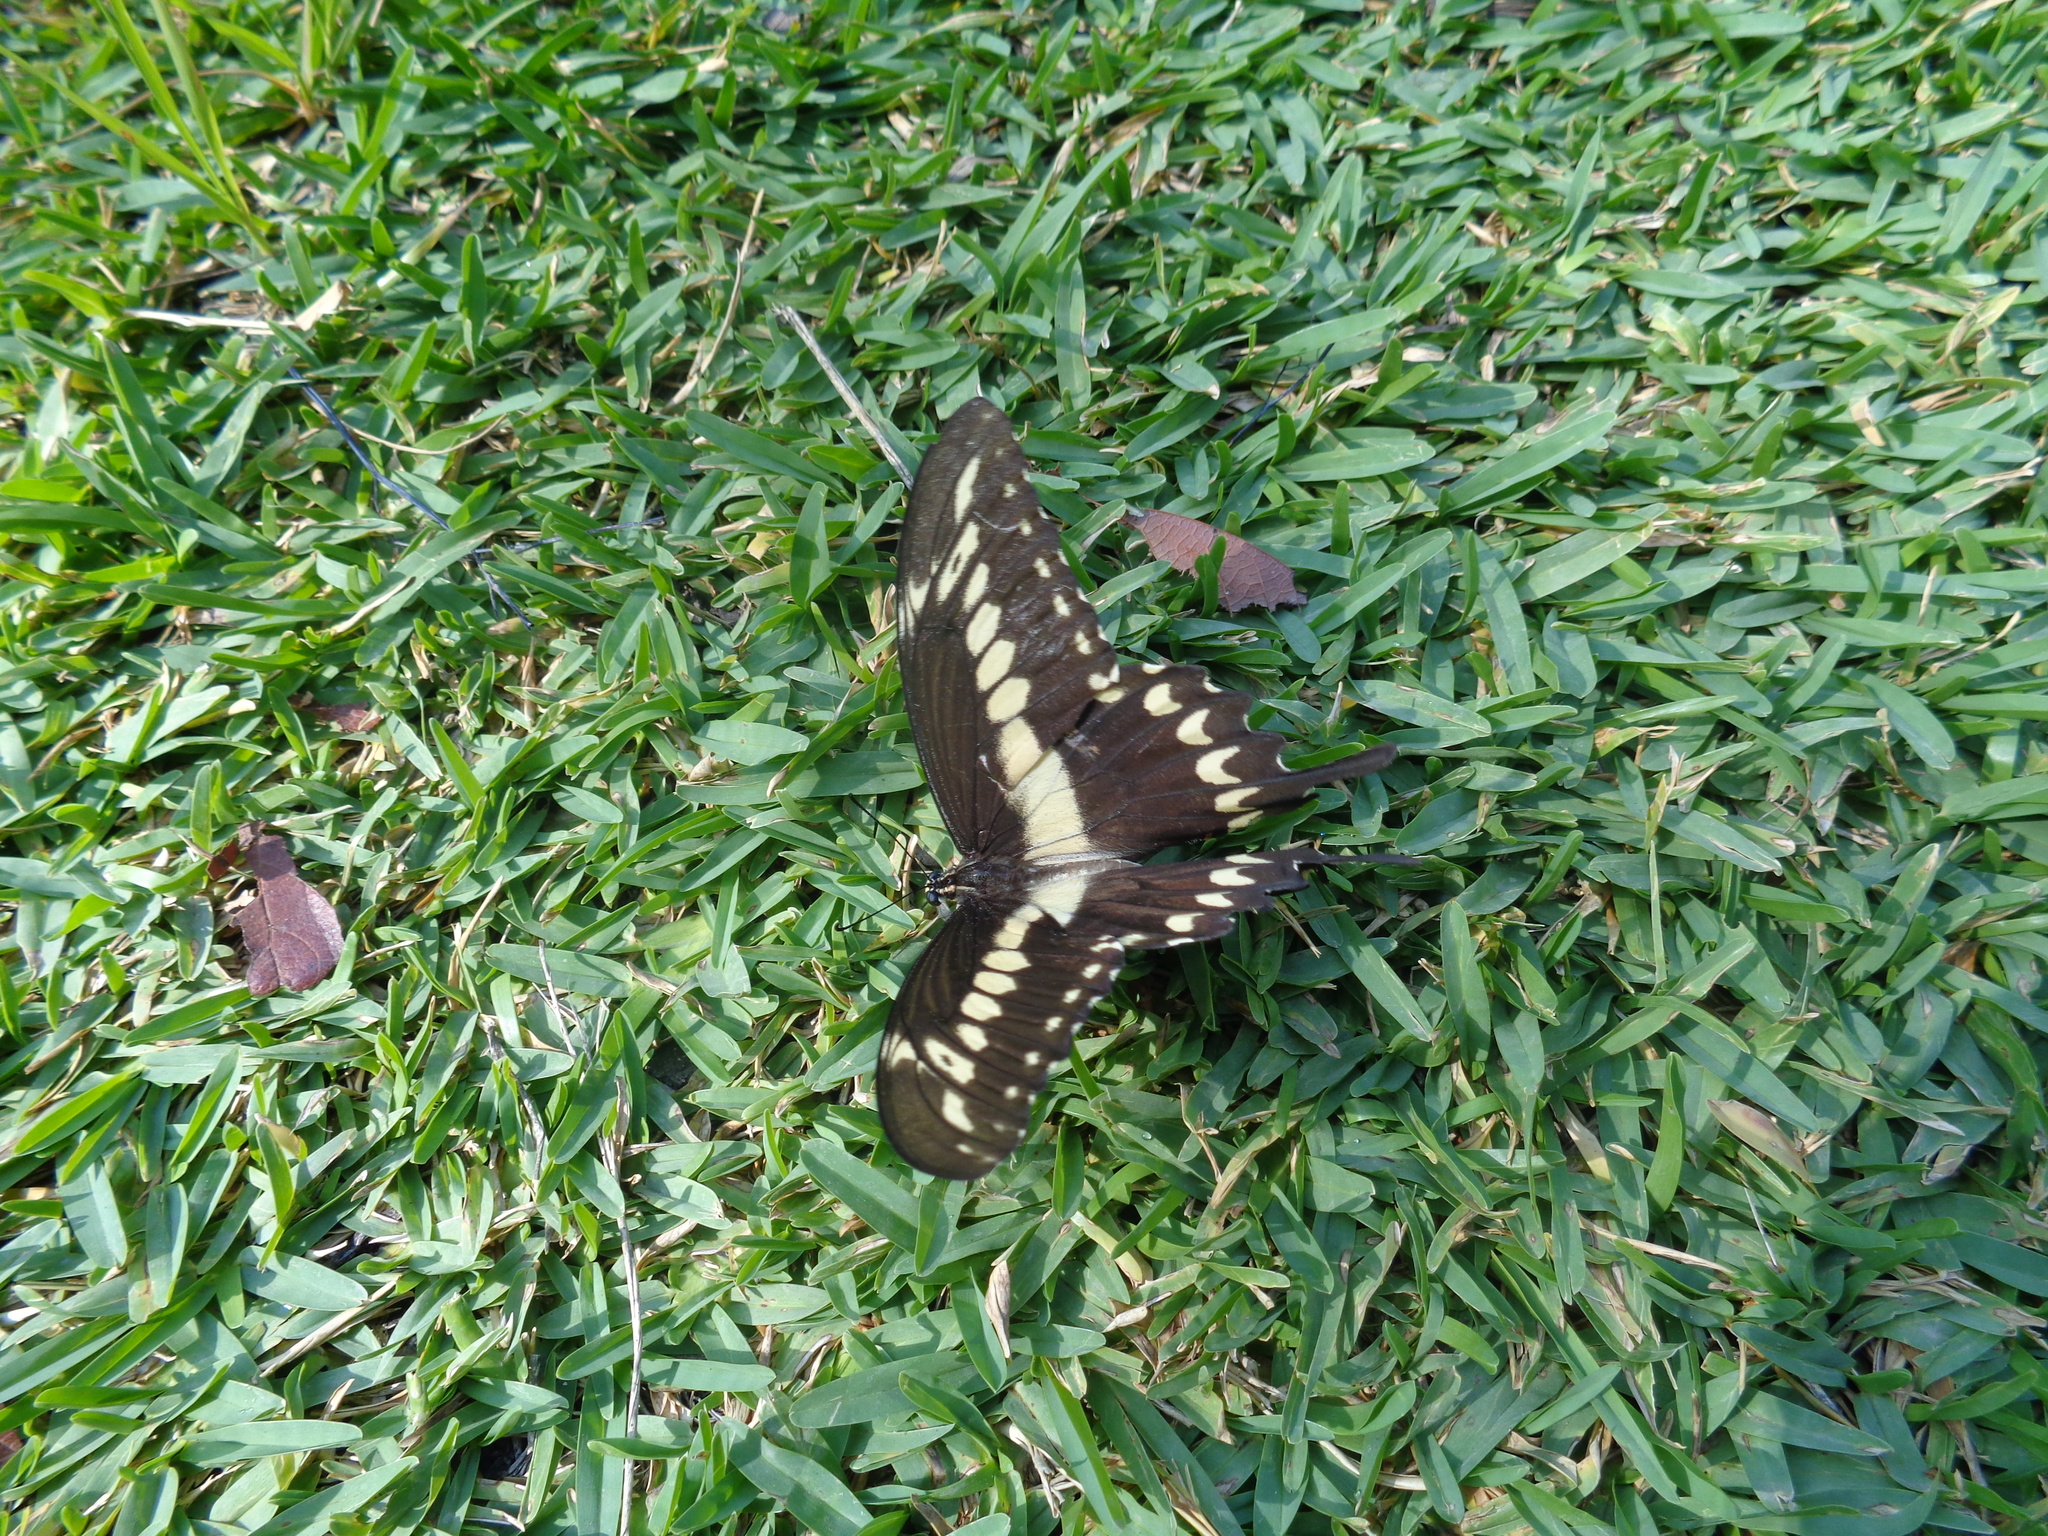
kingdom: Animalia
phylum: Arthropoda
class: Insecta
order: Lepidoptera
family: Papilionidae
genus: Papilio
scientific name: Papilio ornythion
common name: Ornythion swallowtail
